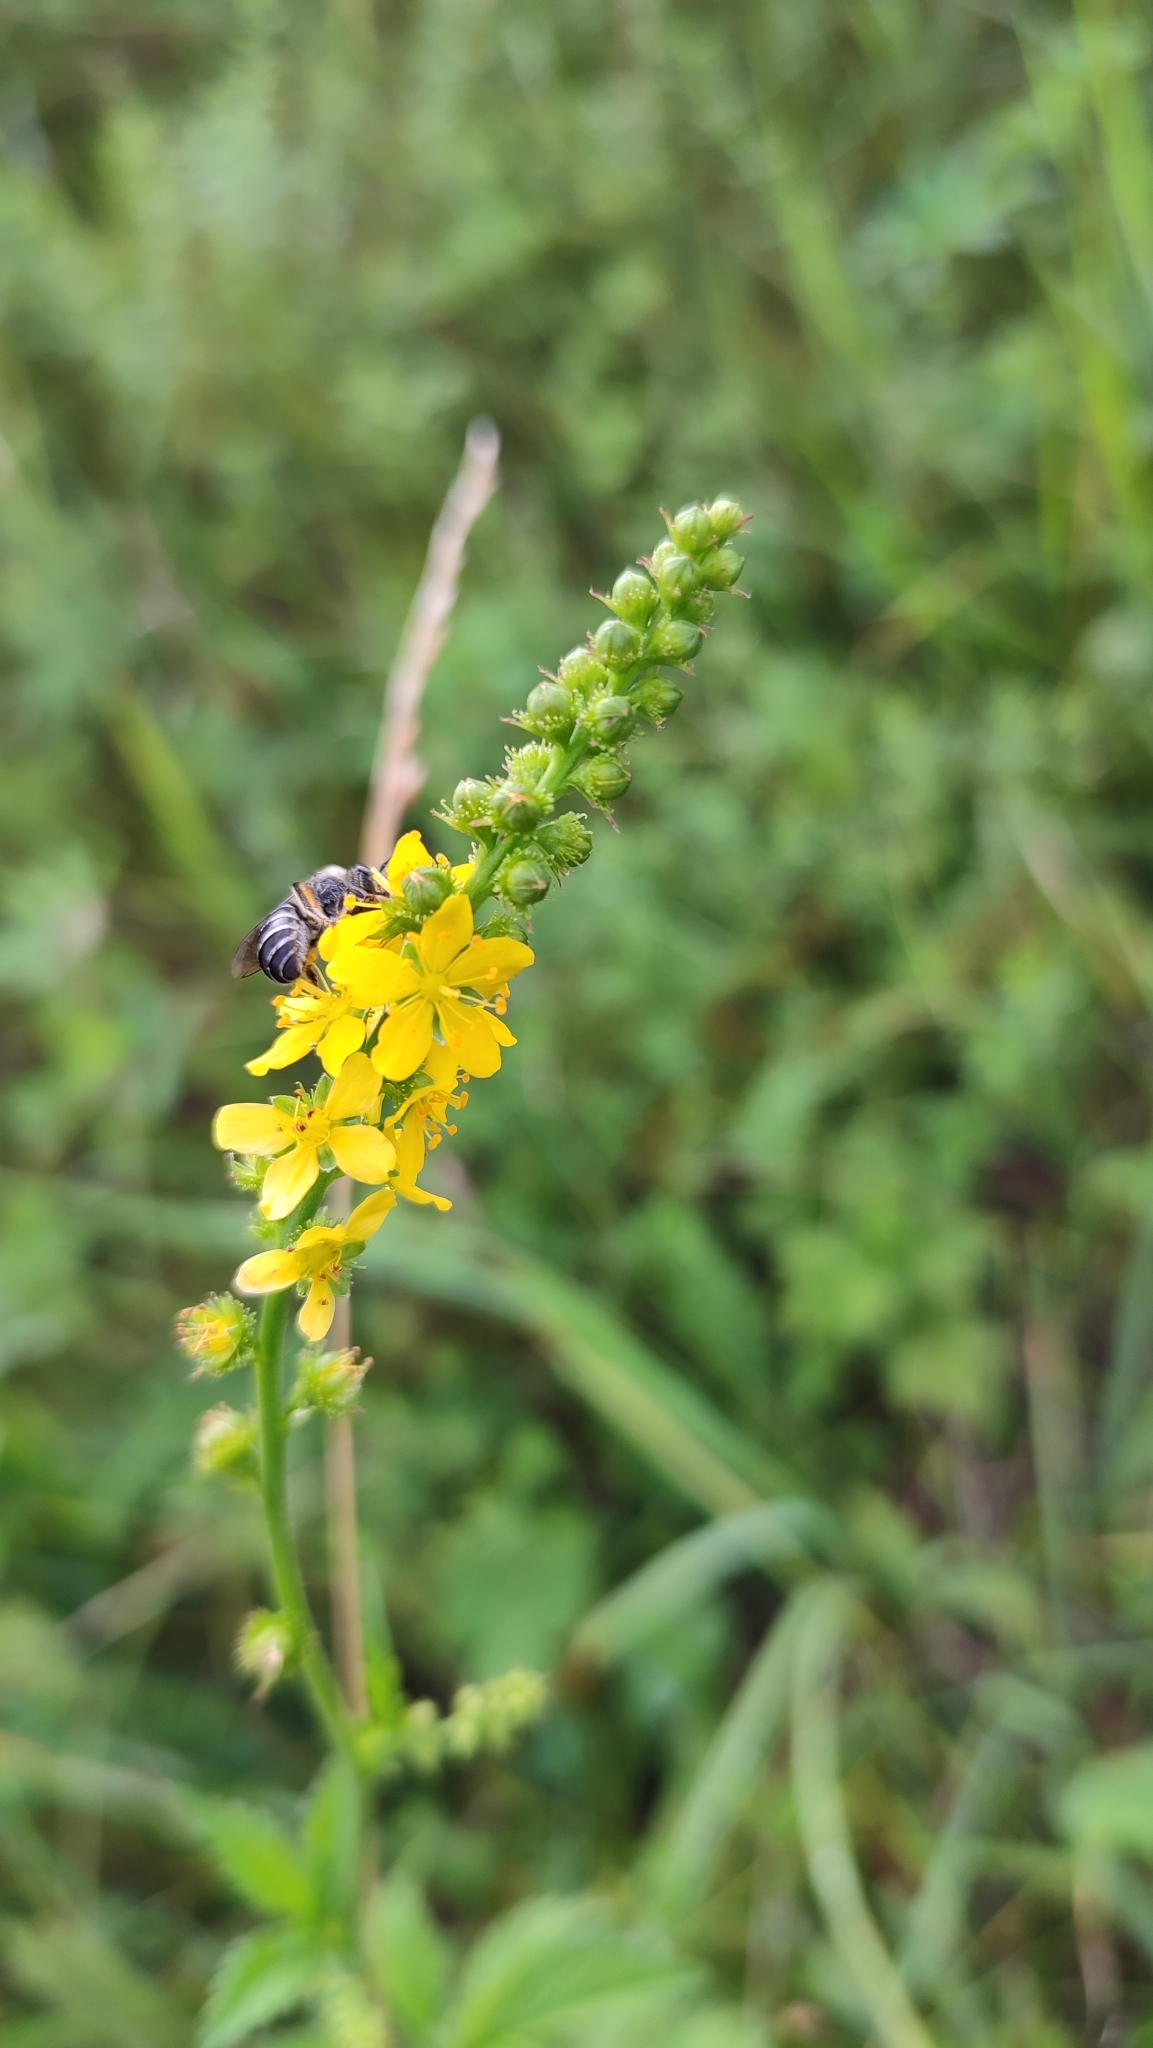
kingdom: Plantae
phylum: Tracheophyta
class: Magnoliopsida
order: Rosales
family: Rosaceae
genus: Agrimonia
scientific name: Agrimonia pilosa
